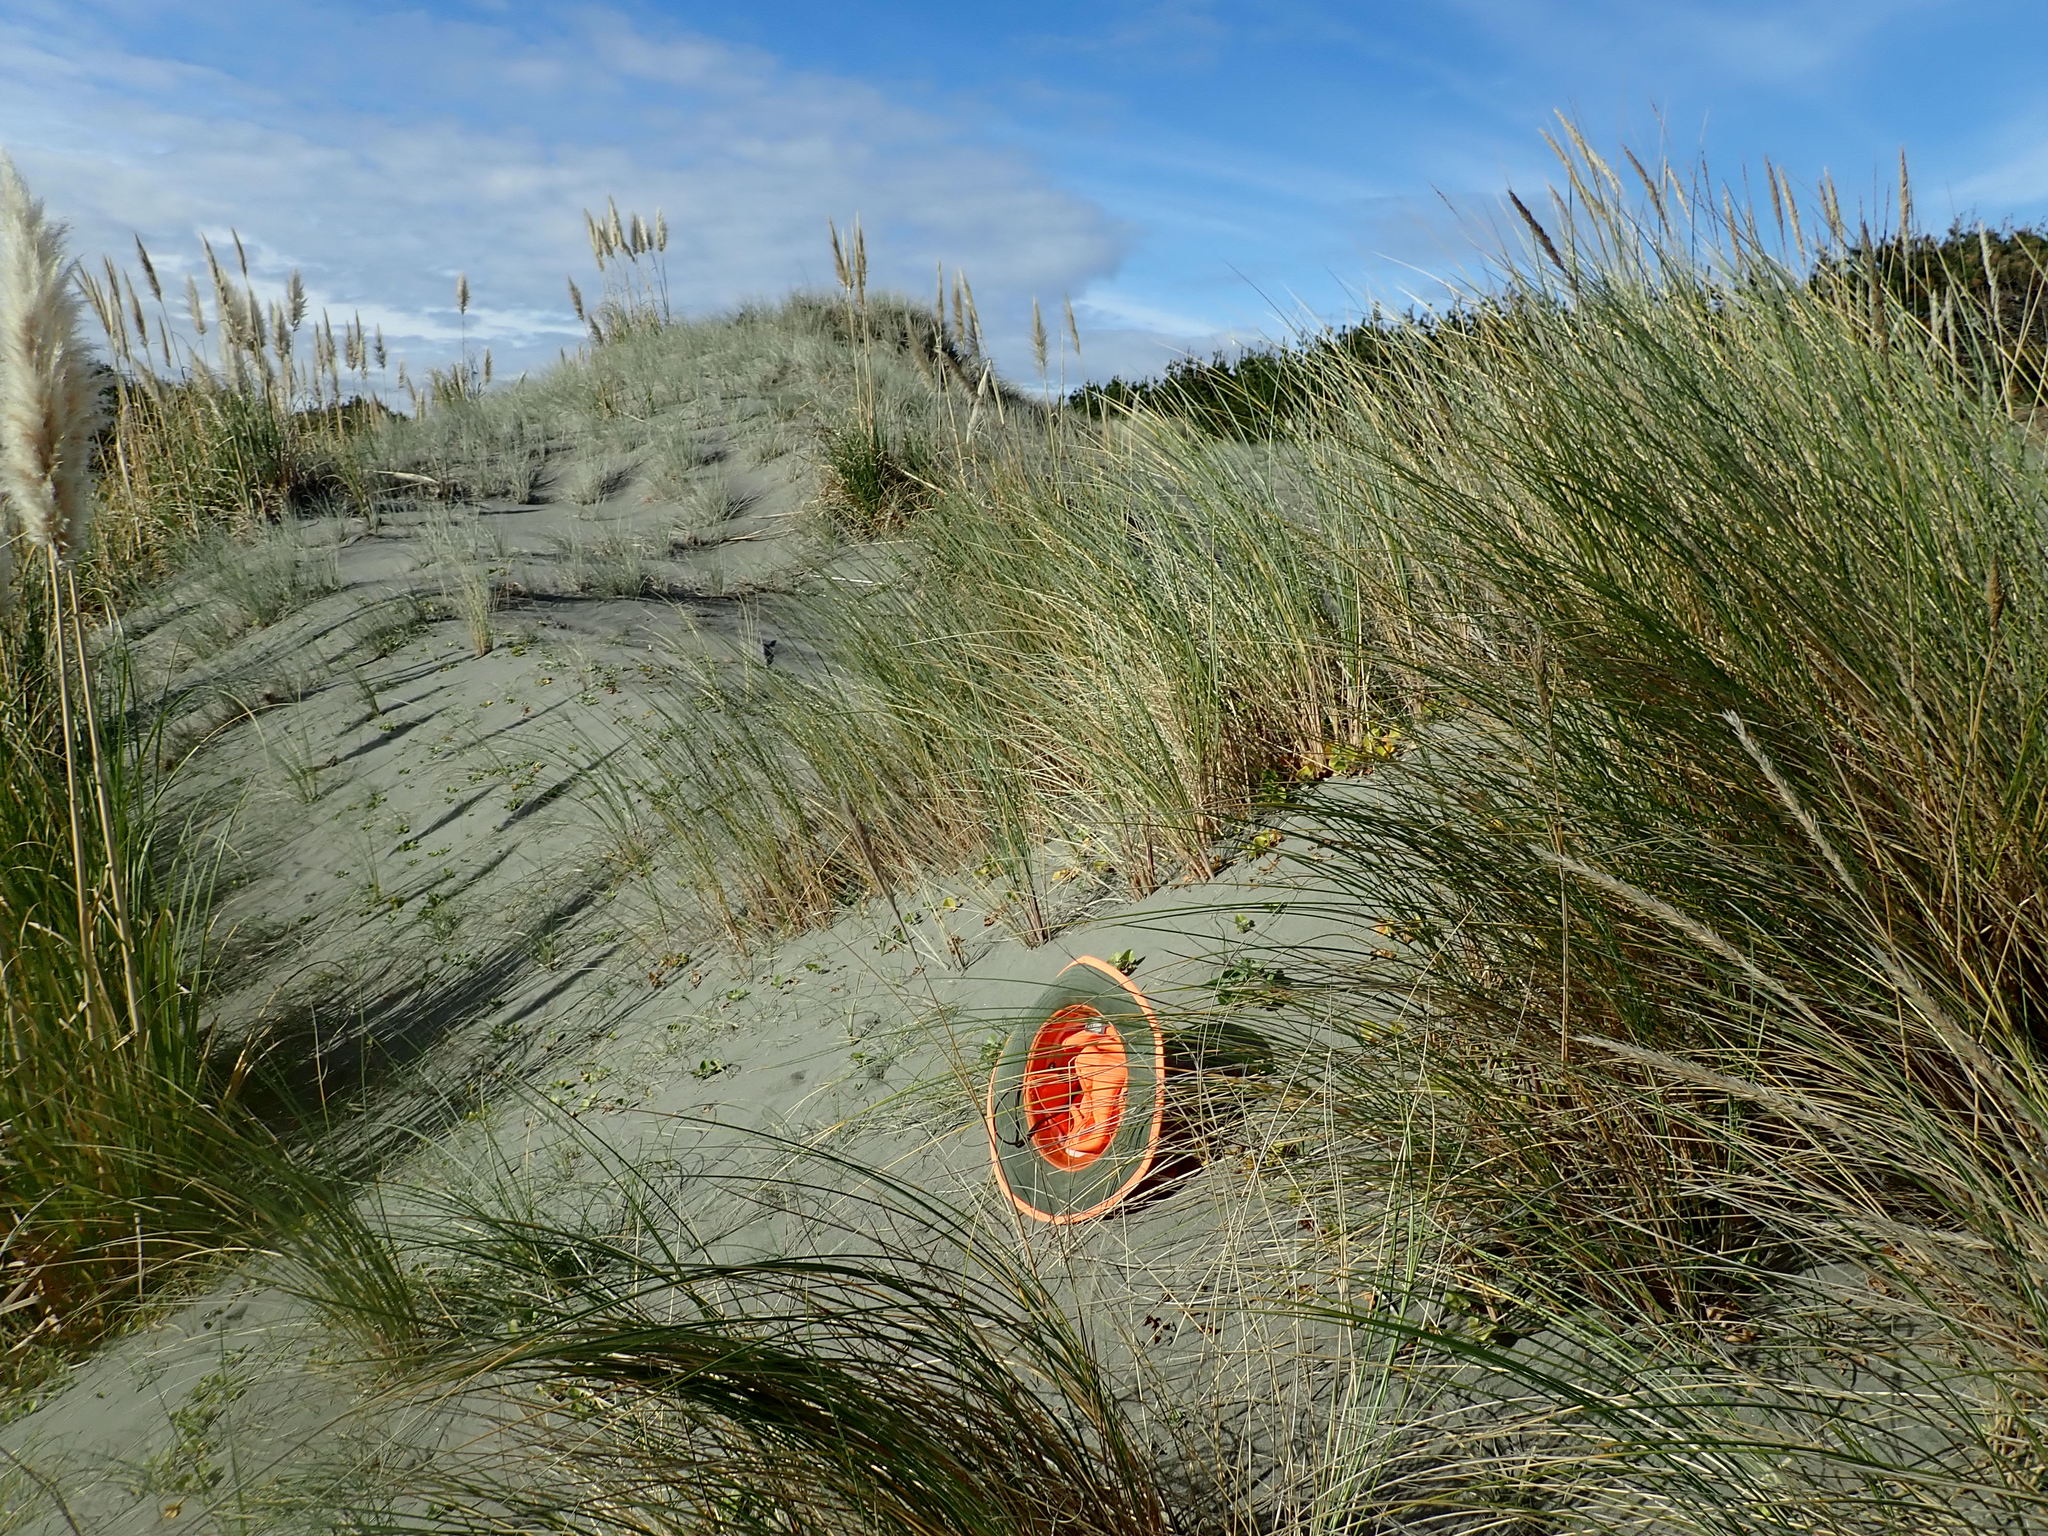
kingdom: Plantae
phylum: Tracheophyta
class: Magnoliopsida
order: Solanales
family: Convolvulaceae
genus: Calystegia
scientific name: Calystegia soldanella
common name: Sea bindweed
